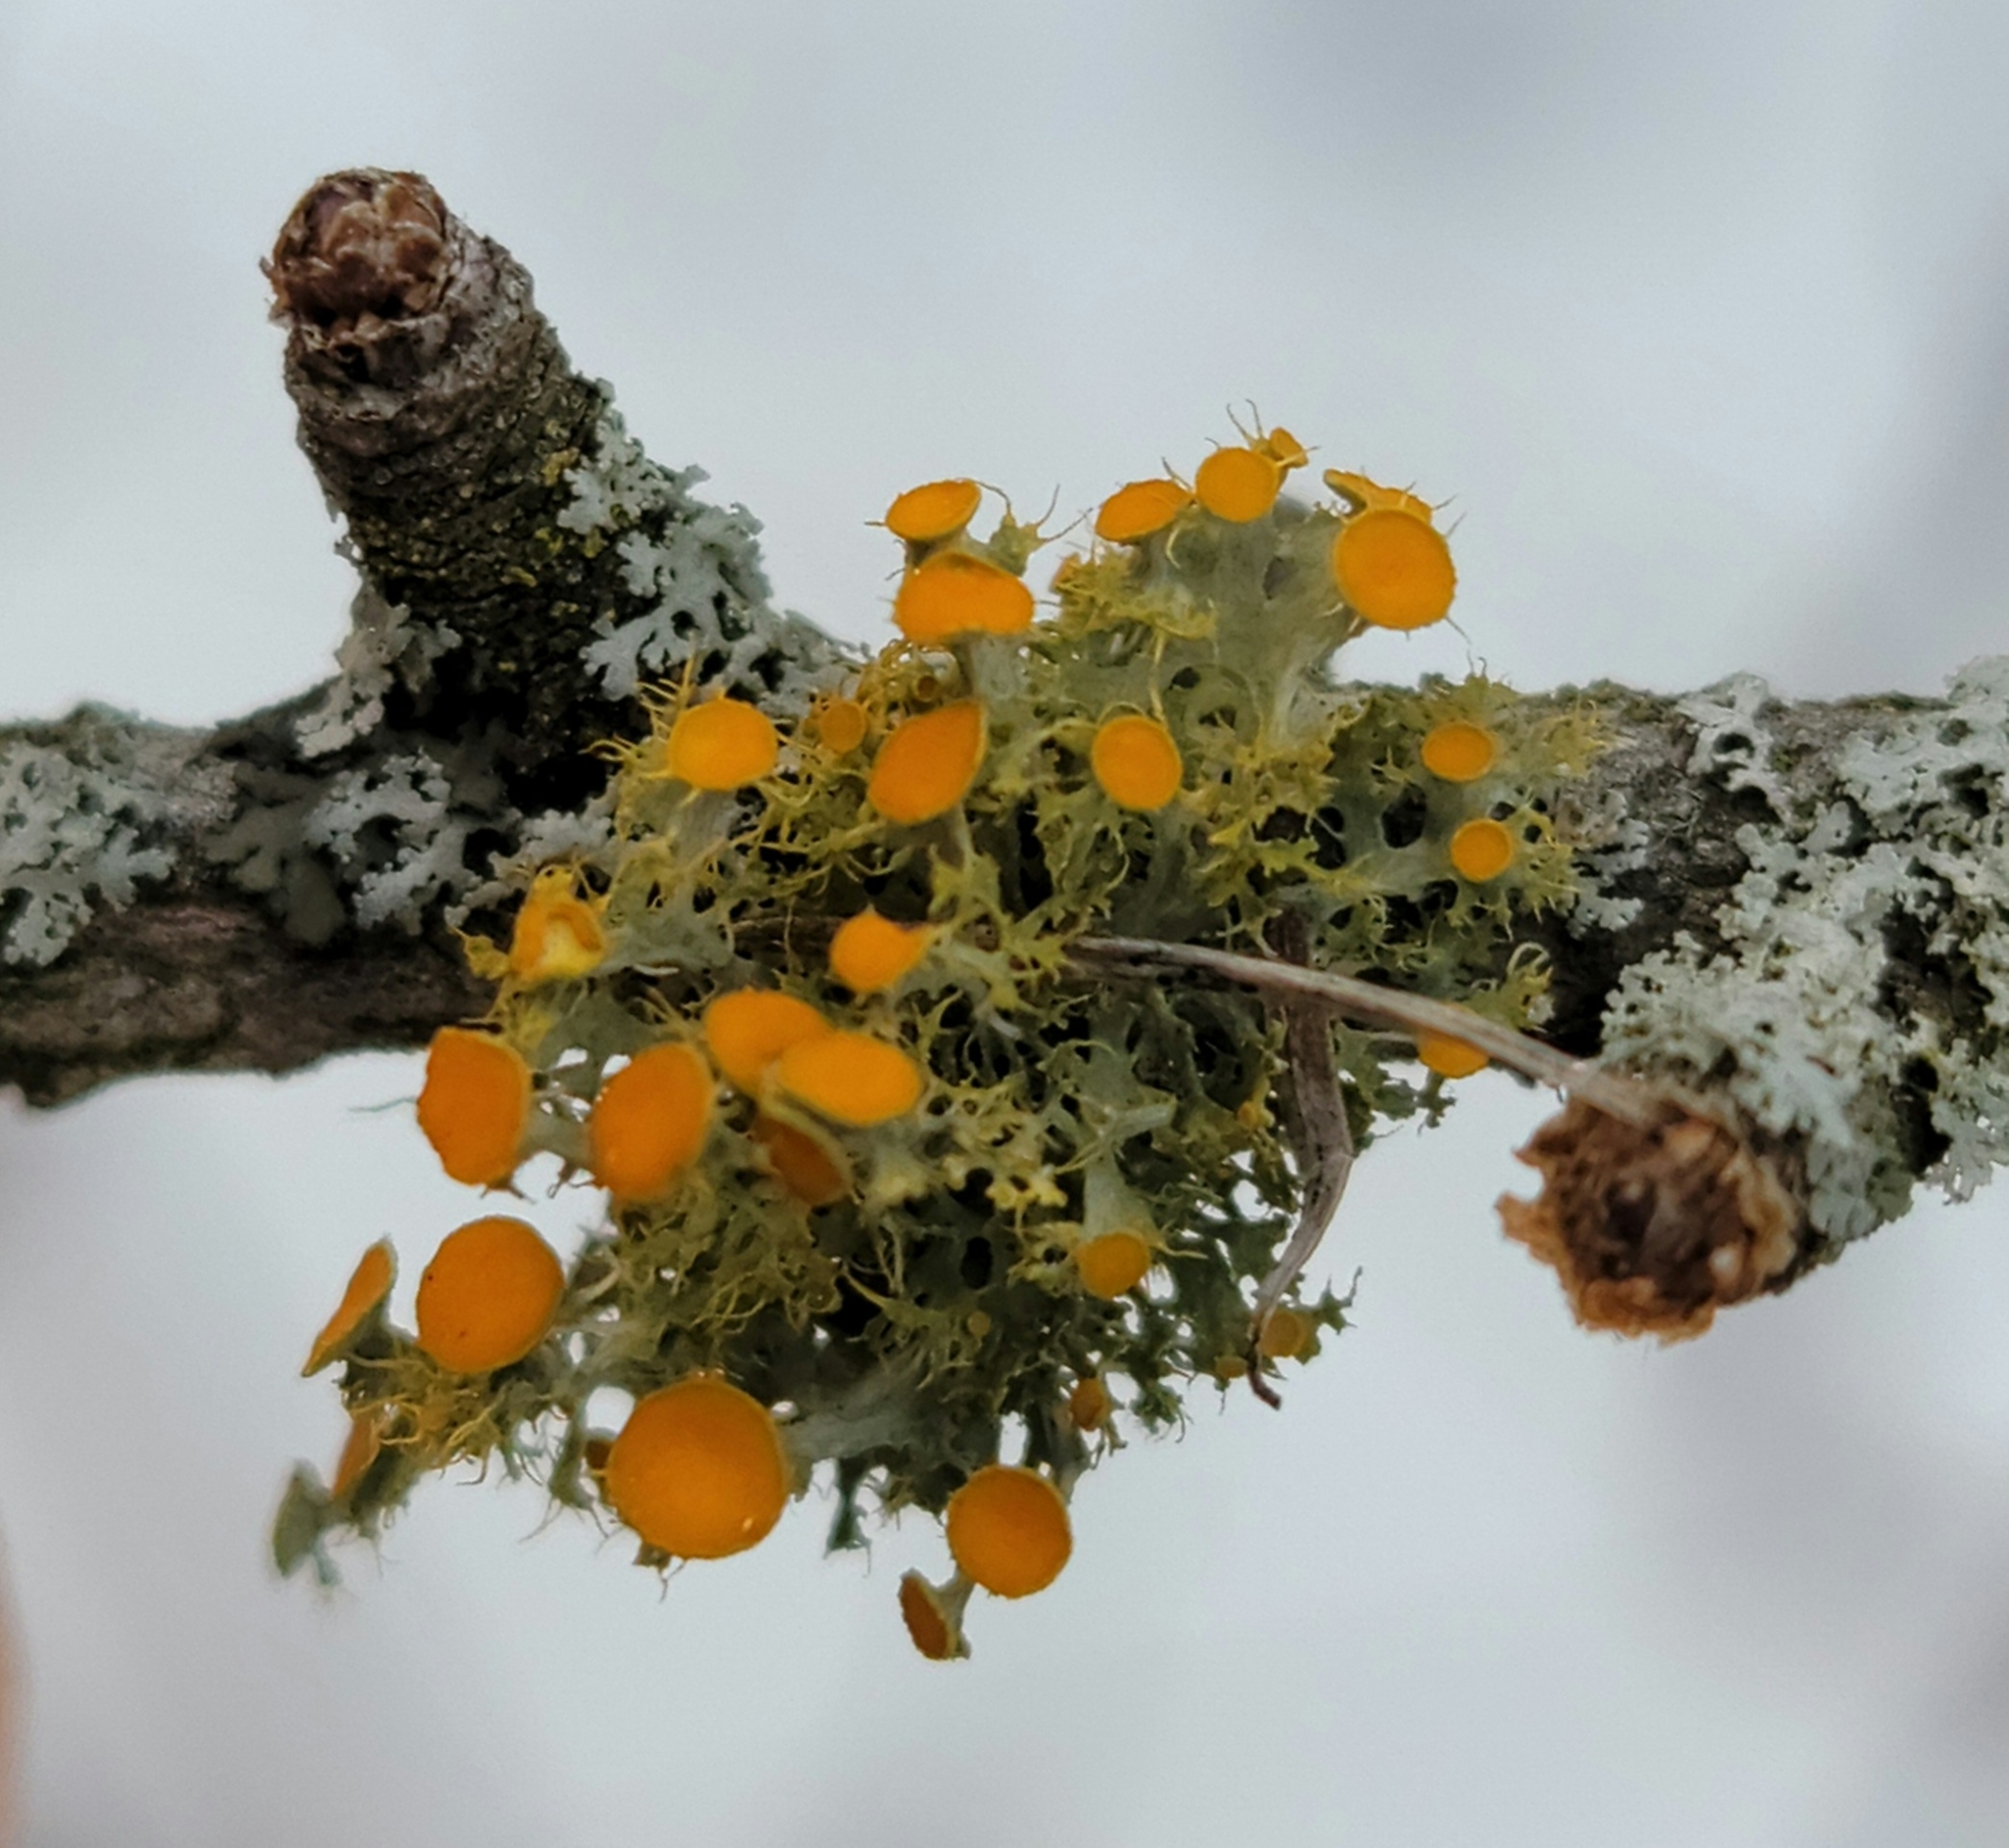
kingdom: Fungi
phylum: Ascomycota
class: Lecanoromycetes
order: Teloschistales
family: Teloschistaceae
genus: Niorma
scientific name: Niorma chrysophthalma
